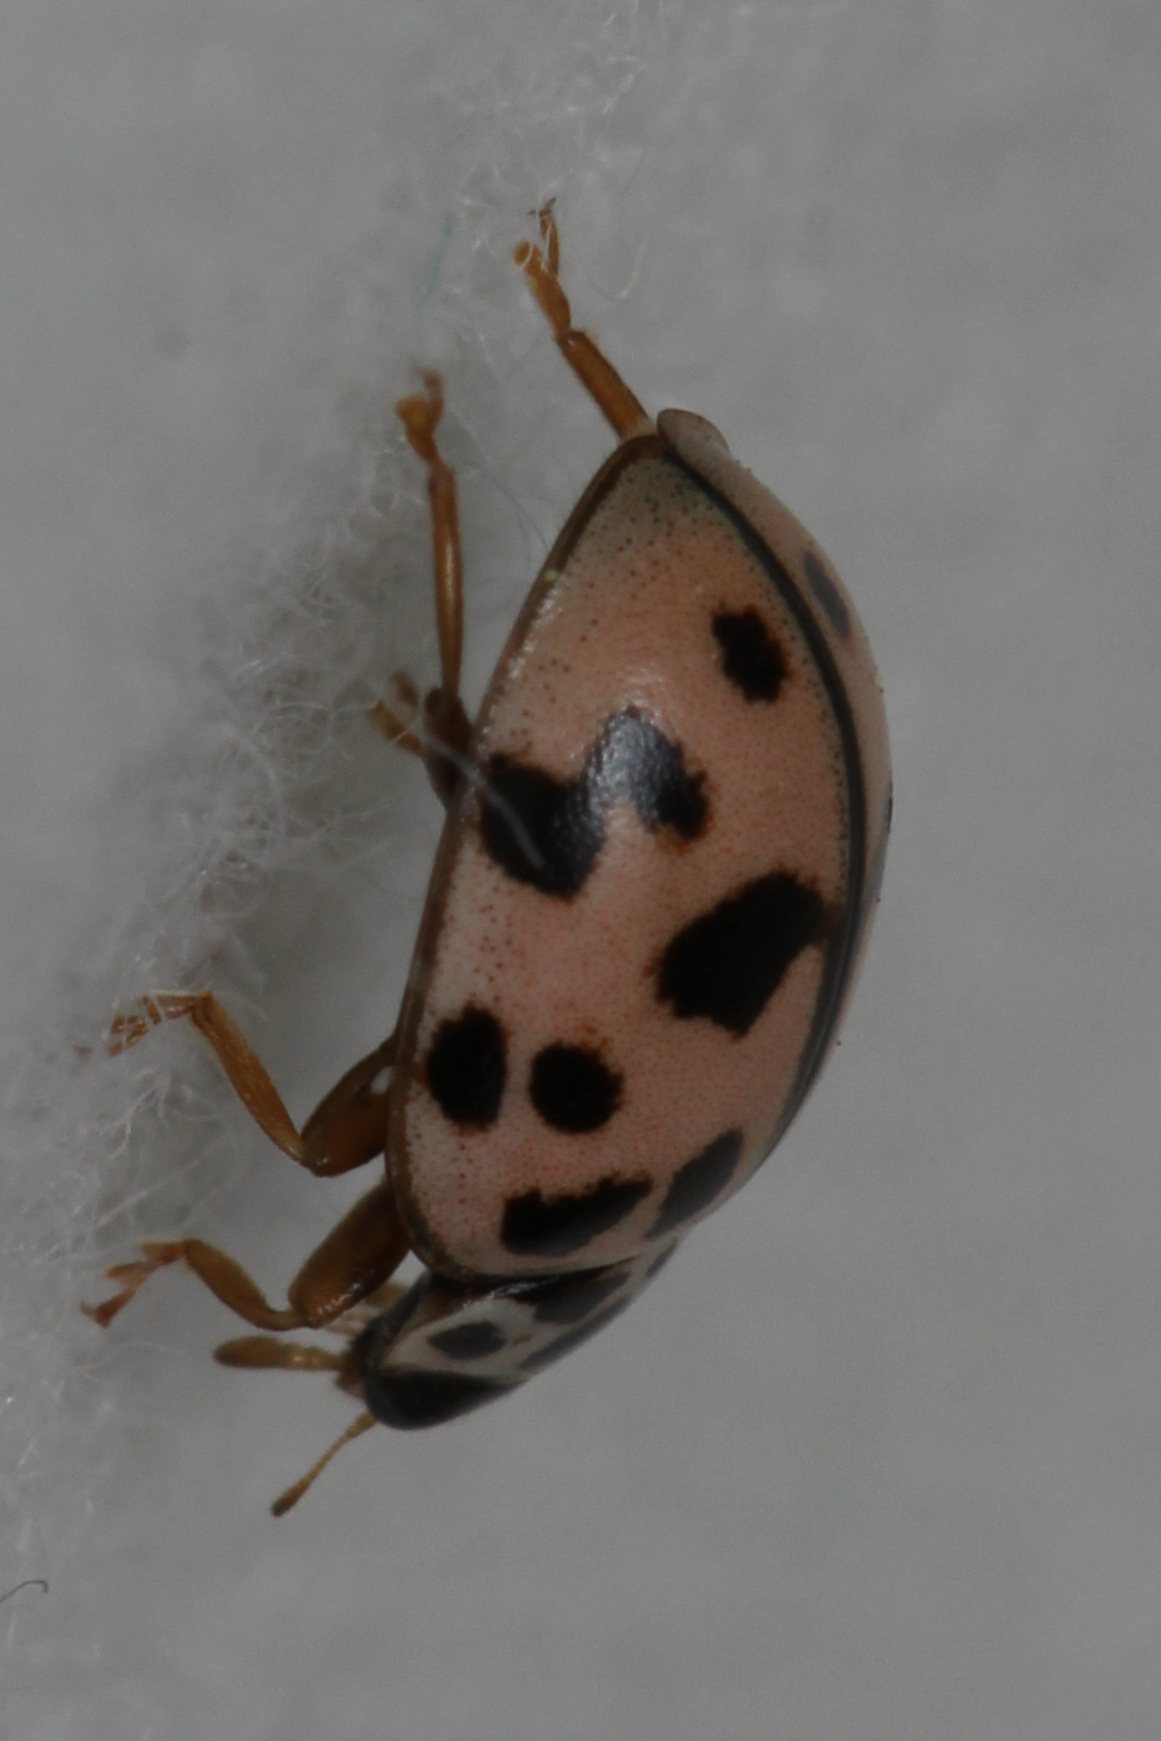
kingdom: Animalia
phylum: Arthropoda
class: Insecta
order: Coleoptera
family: Coccinellidae
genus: Oenopia
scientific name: Oenopia conglobata
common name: Ladybird beetle
